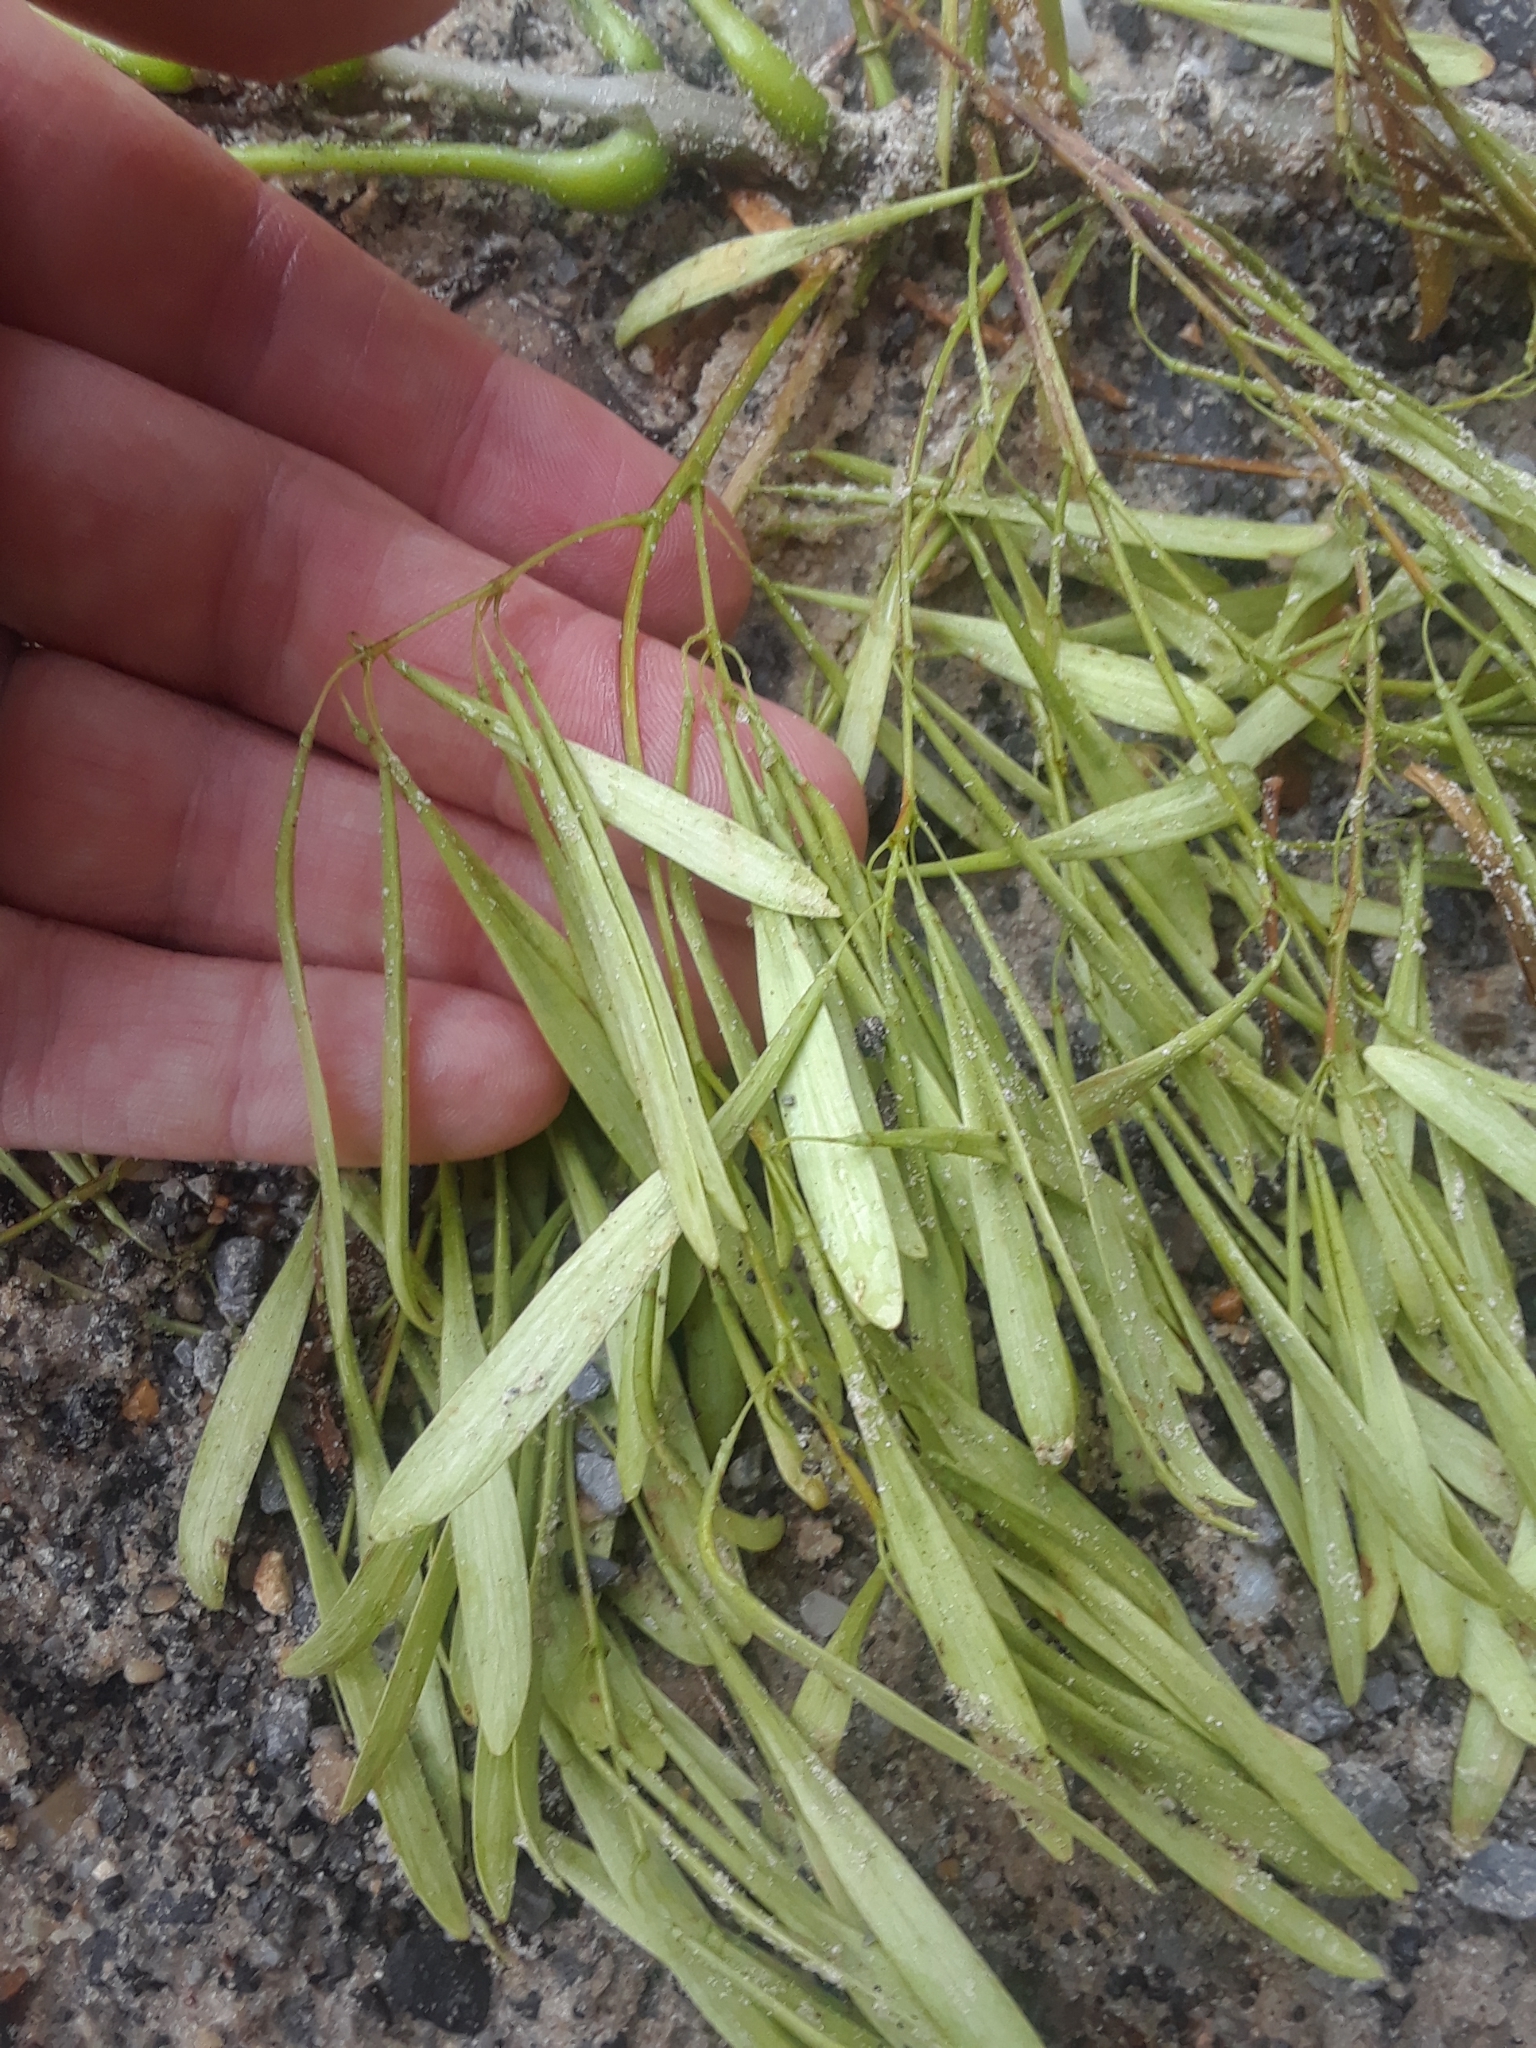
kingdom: Plantae
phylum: Tracheophyta
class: Magnoliopsida
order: Lamiales
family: Oleaceae
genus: Fraxinus
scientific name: Fraxinus pennsylvanica
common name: Green ash
